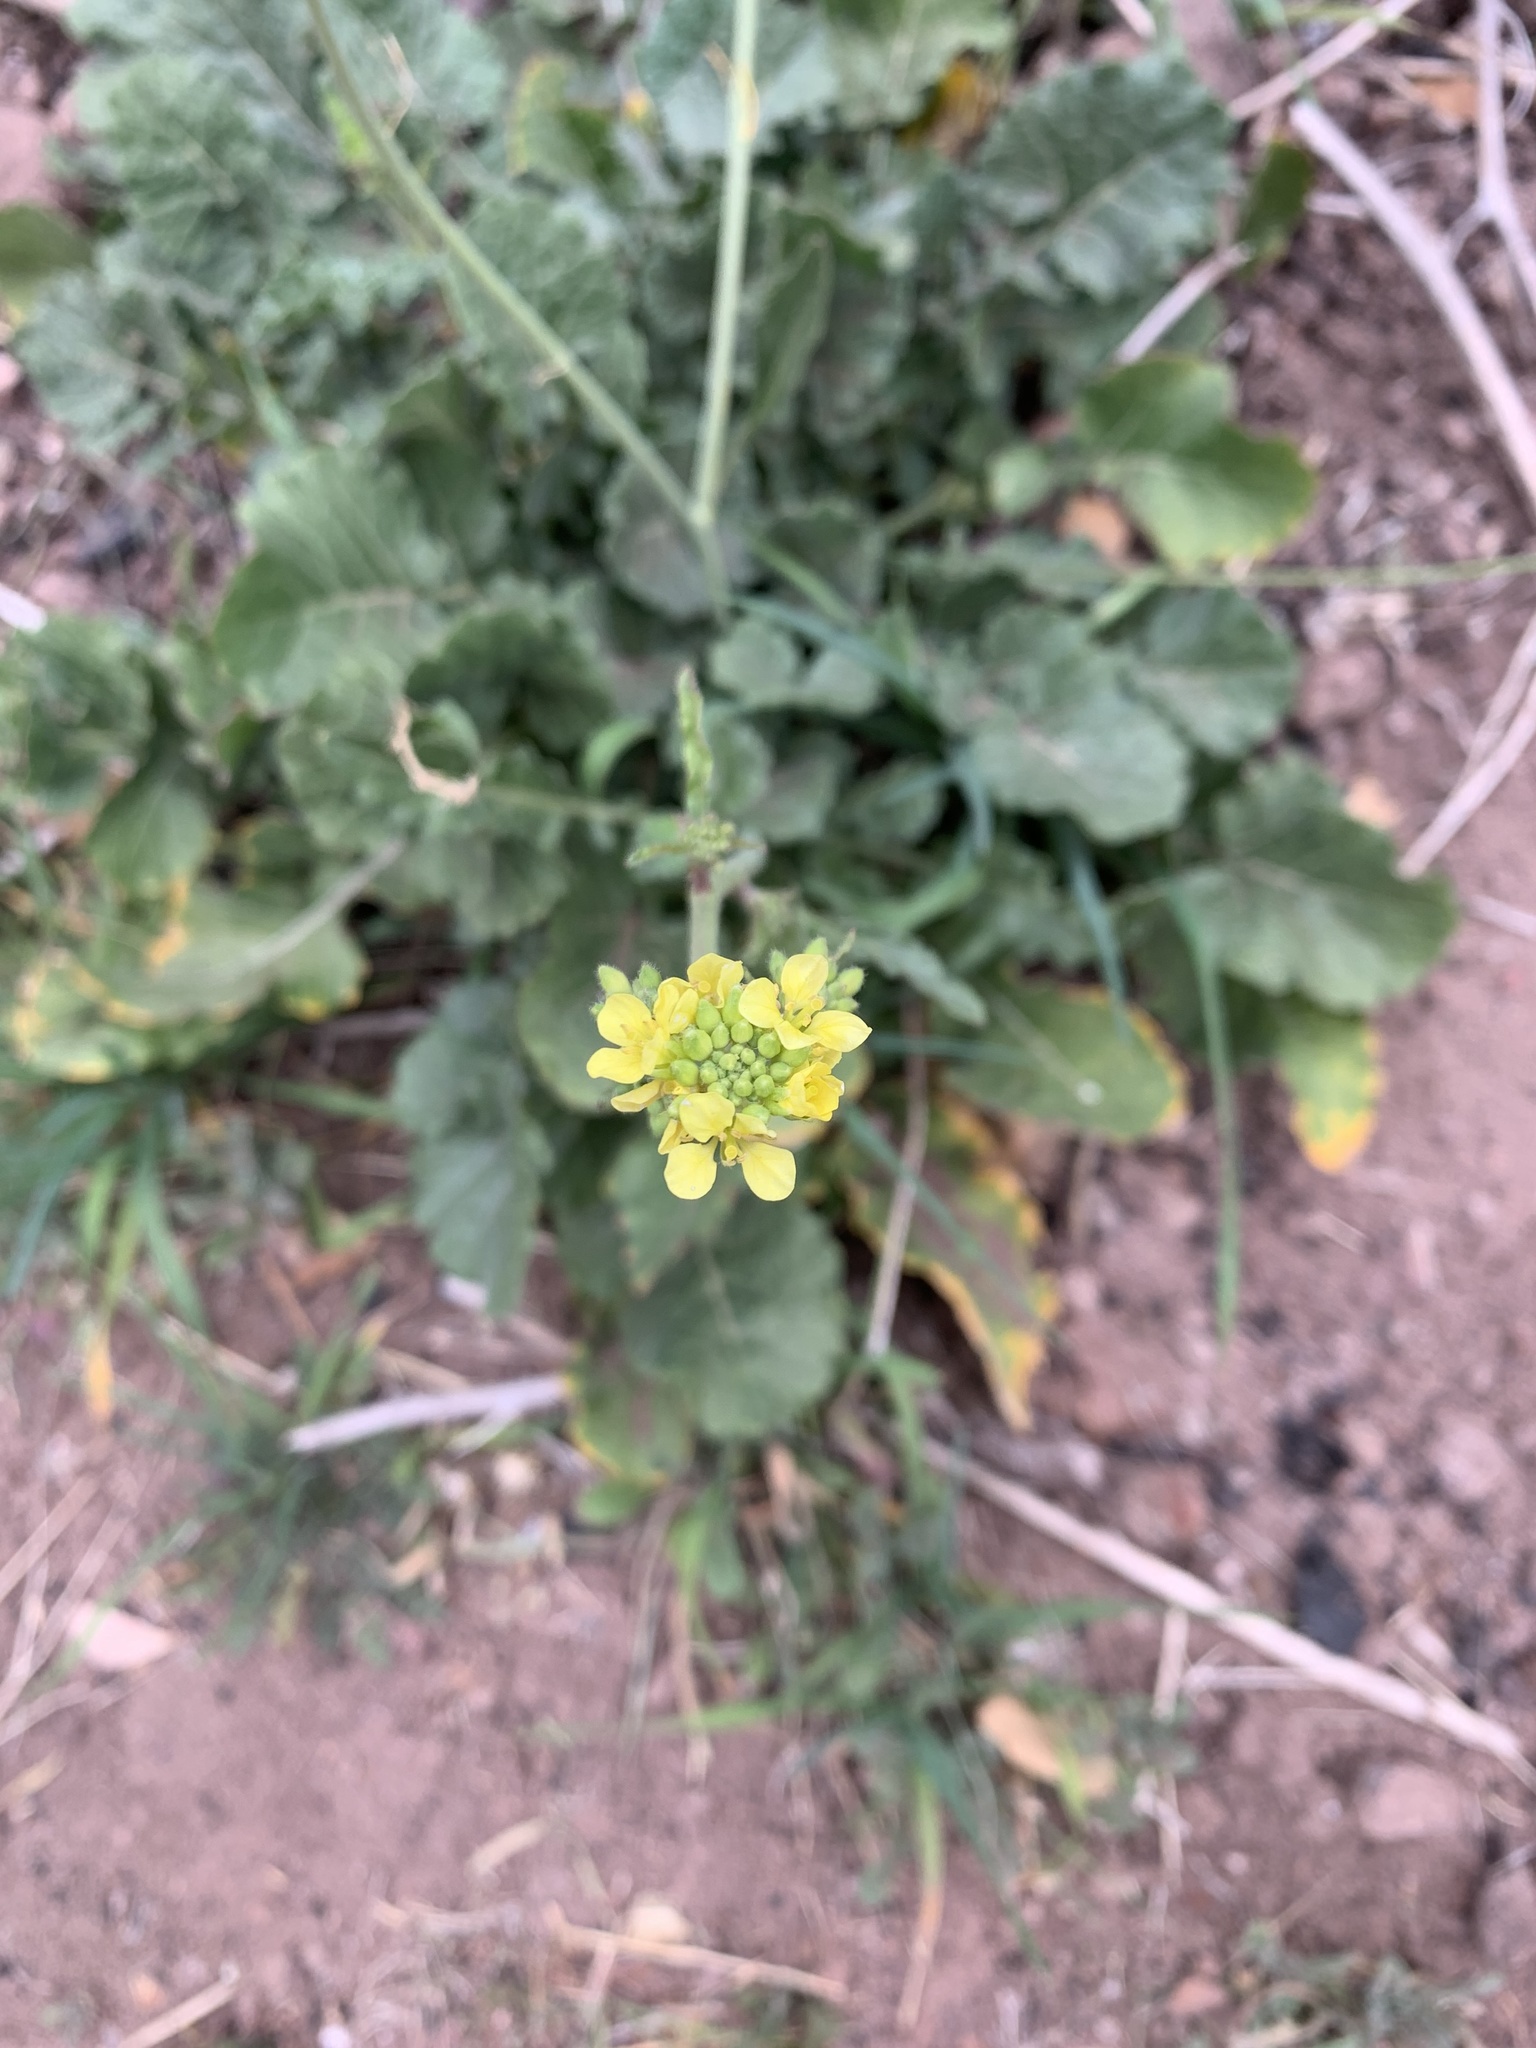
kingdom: Plantae
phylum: Tracheophyta
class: Magnoliopsida
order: Brassicales
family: Brassicaceae
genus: Hirschfeldia
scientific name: Hirschfeldia incana
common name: Hoary mustard
